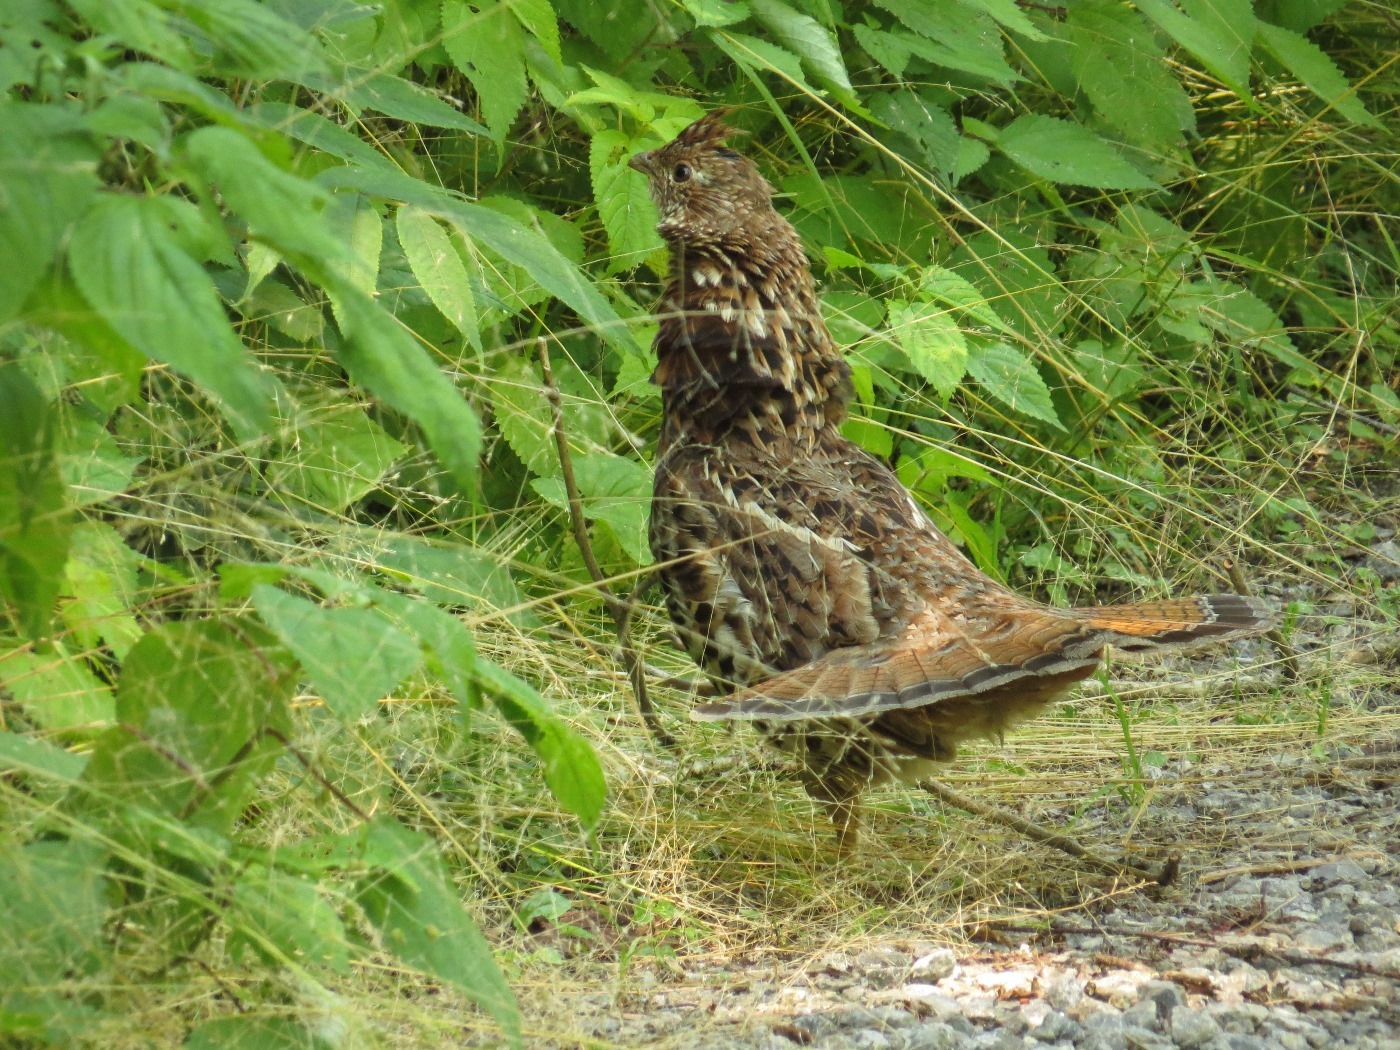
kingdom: Animalia
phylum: Chordata
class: Aves
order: Galliformes
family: Phasianidae
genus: Bonasa
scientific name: Bonasa umbellus
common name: Ruffed grouse
